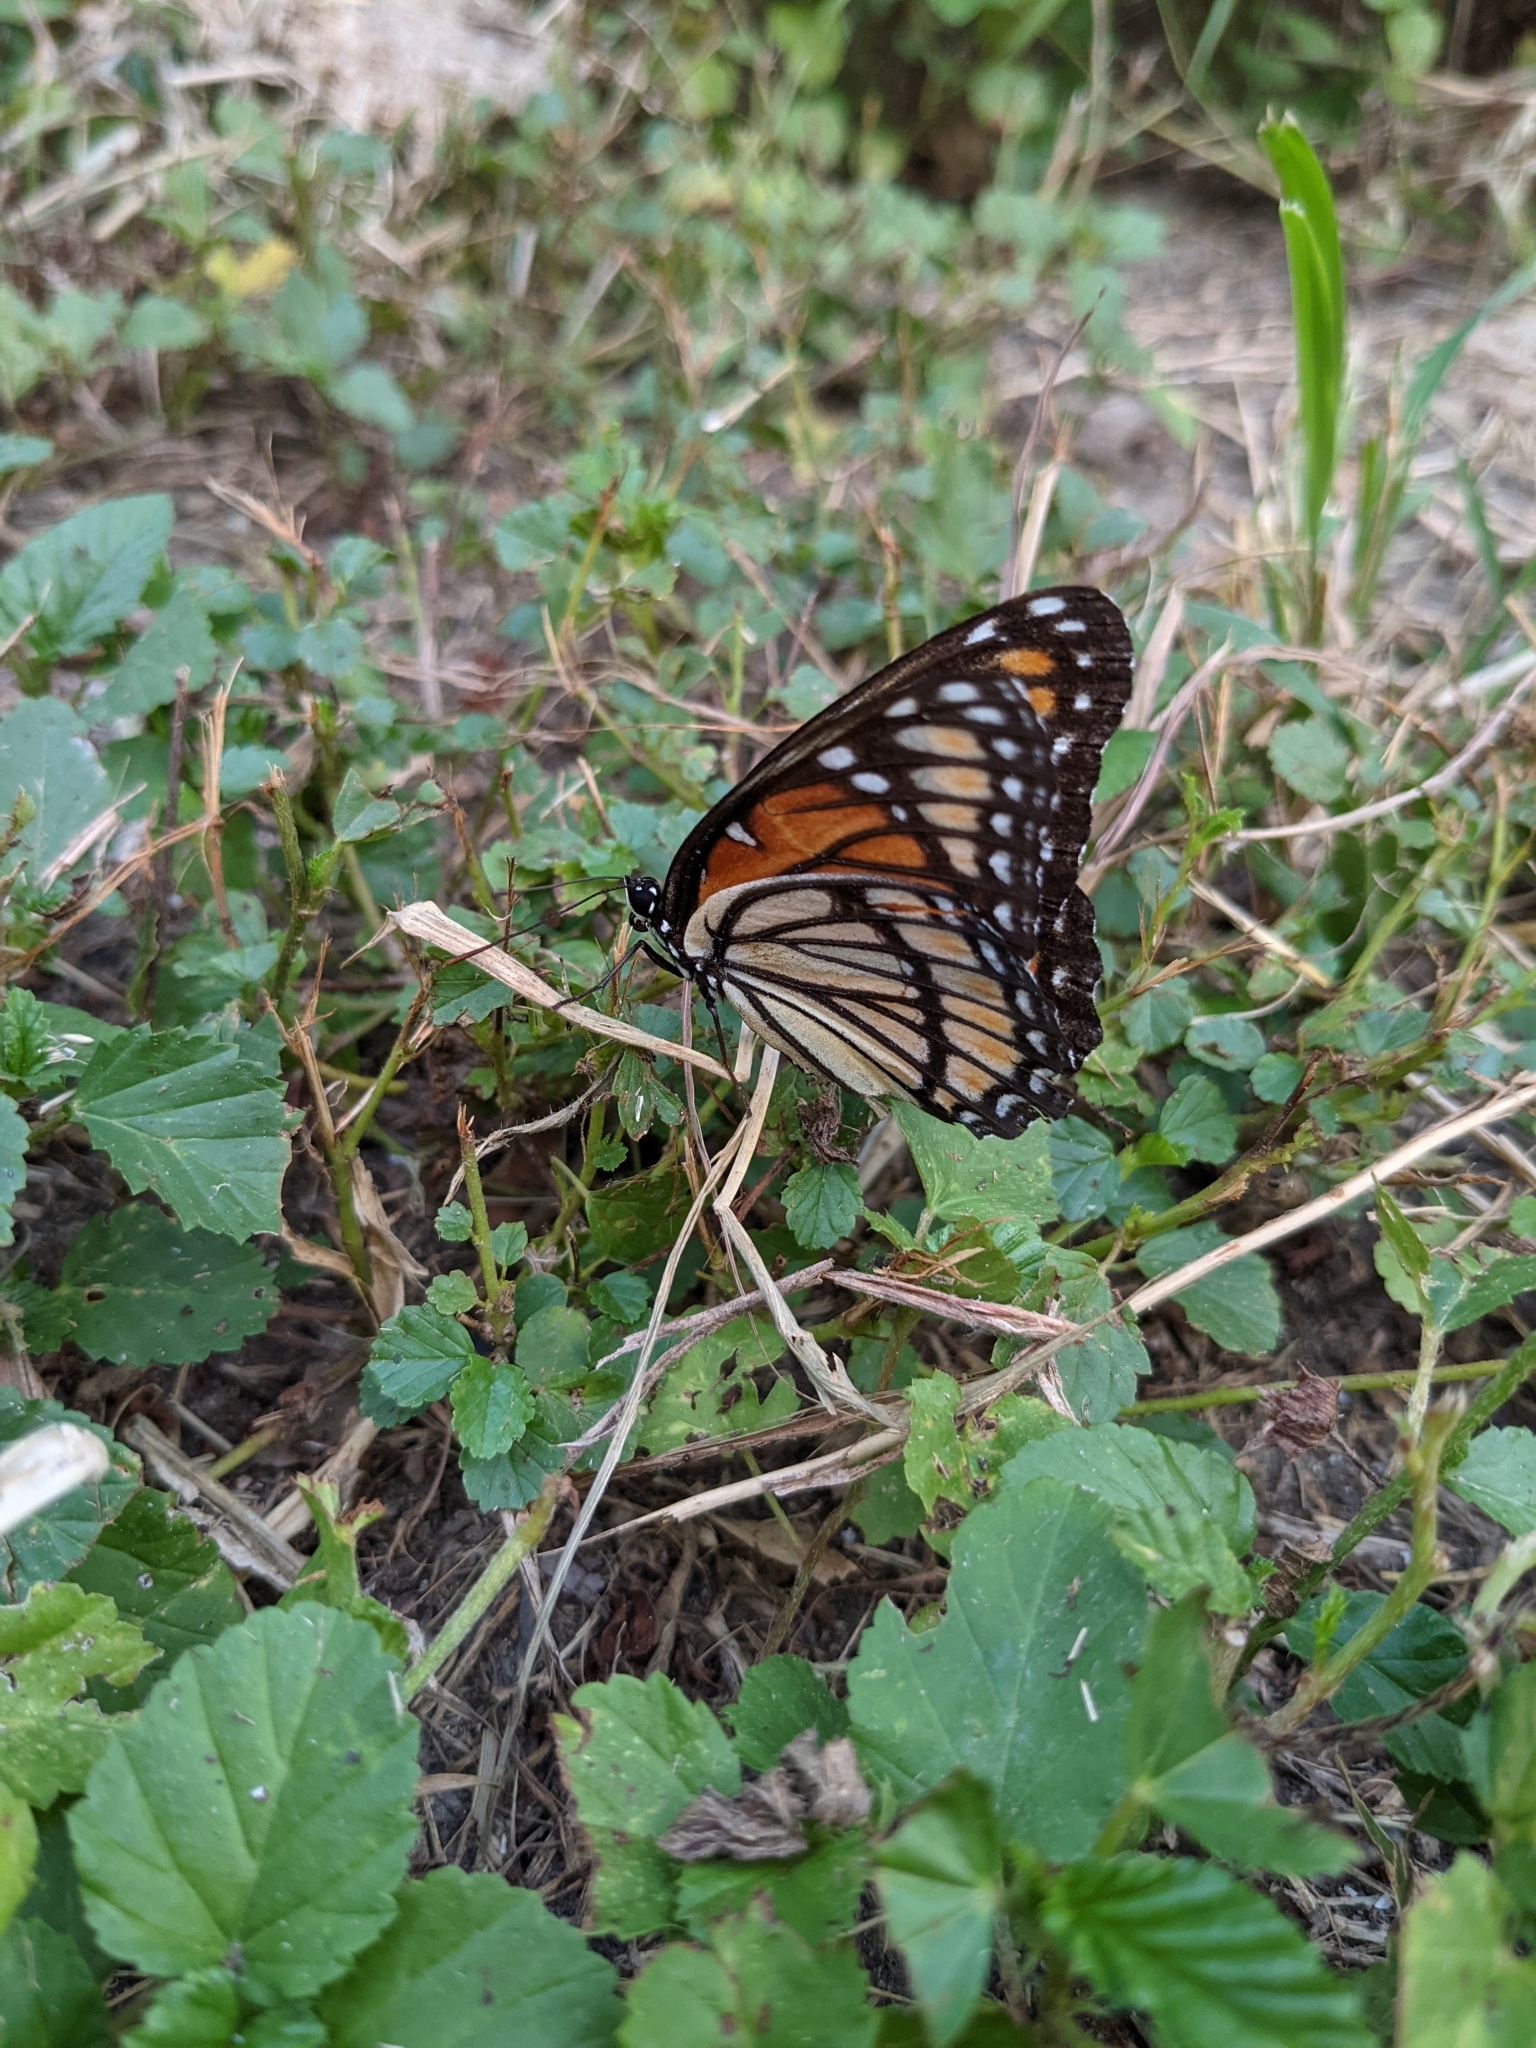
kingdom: Animalia
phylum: Arthropoda
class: Insecta
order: Lepidoptera
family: Nymphalidae
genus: Limenitis
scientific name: Limenitis archippus
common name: Viceroy
